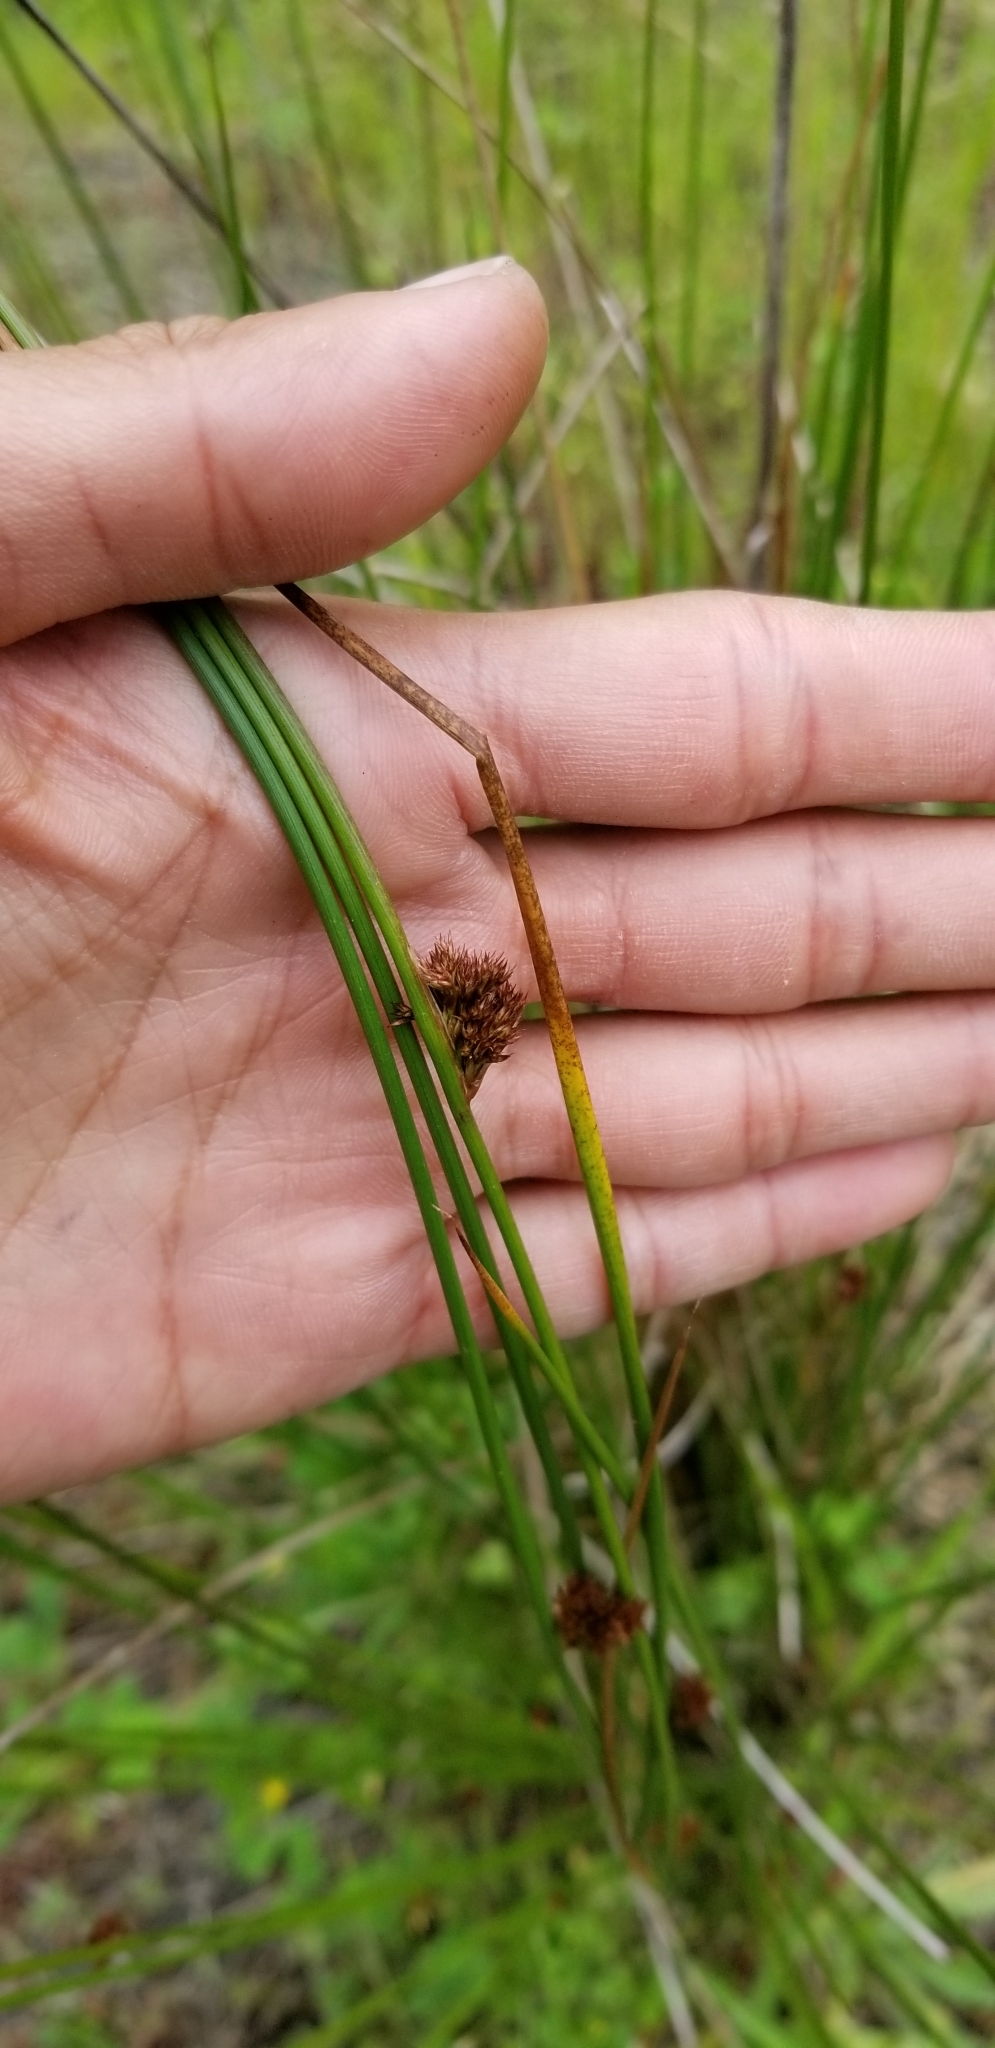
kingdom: Plantae
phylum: Tracheophyta
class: Liliopsida
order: Poales
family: Juncaceae
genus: Juncus
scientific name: Juncus lesueurii
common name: Lesueur's rush
